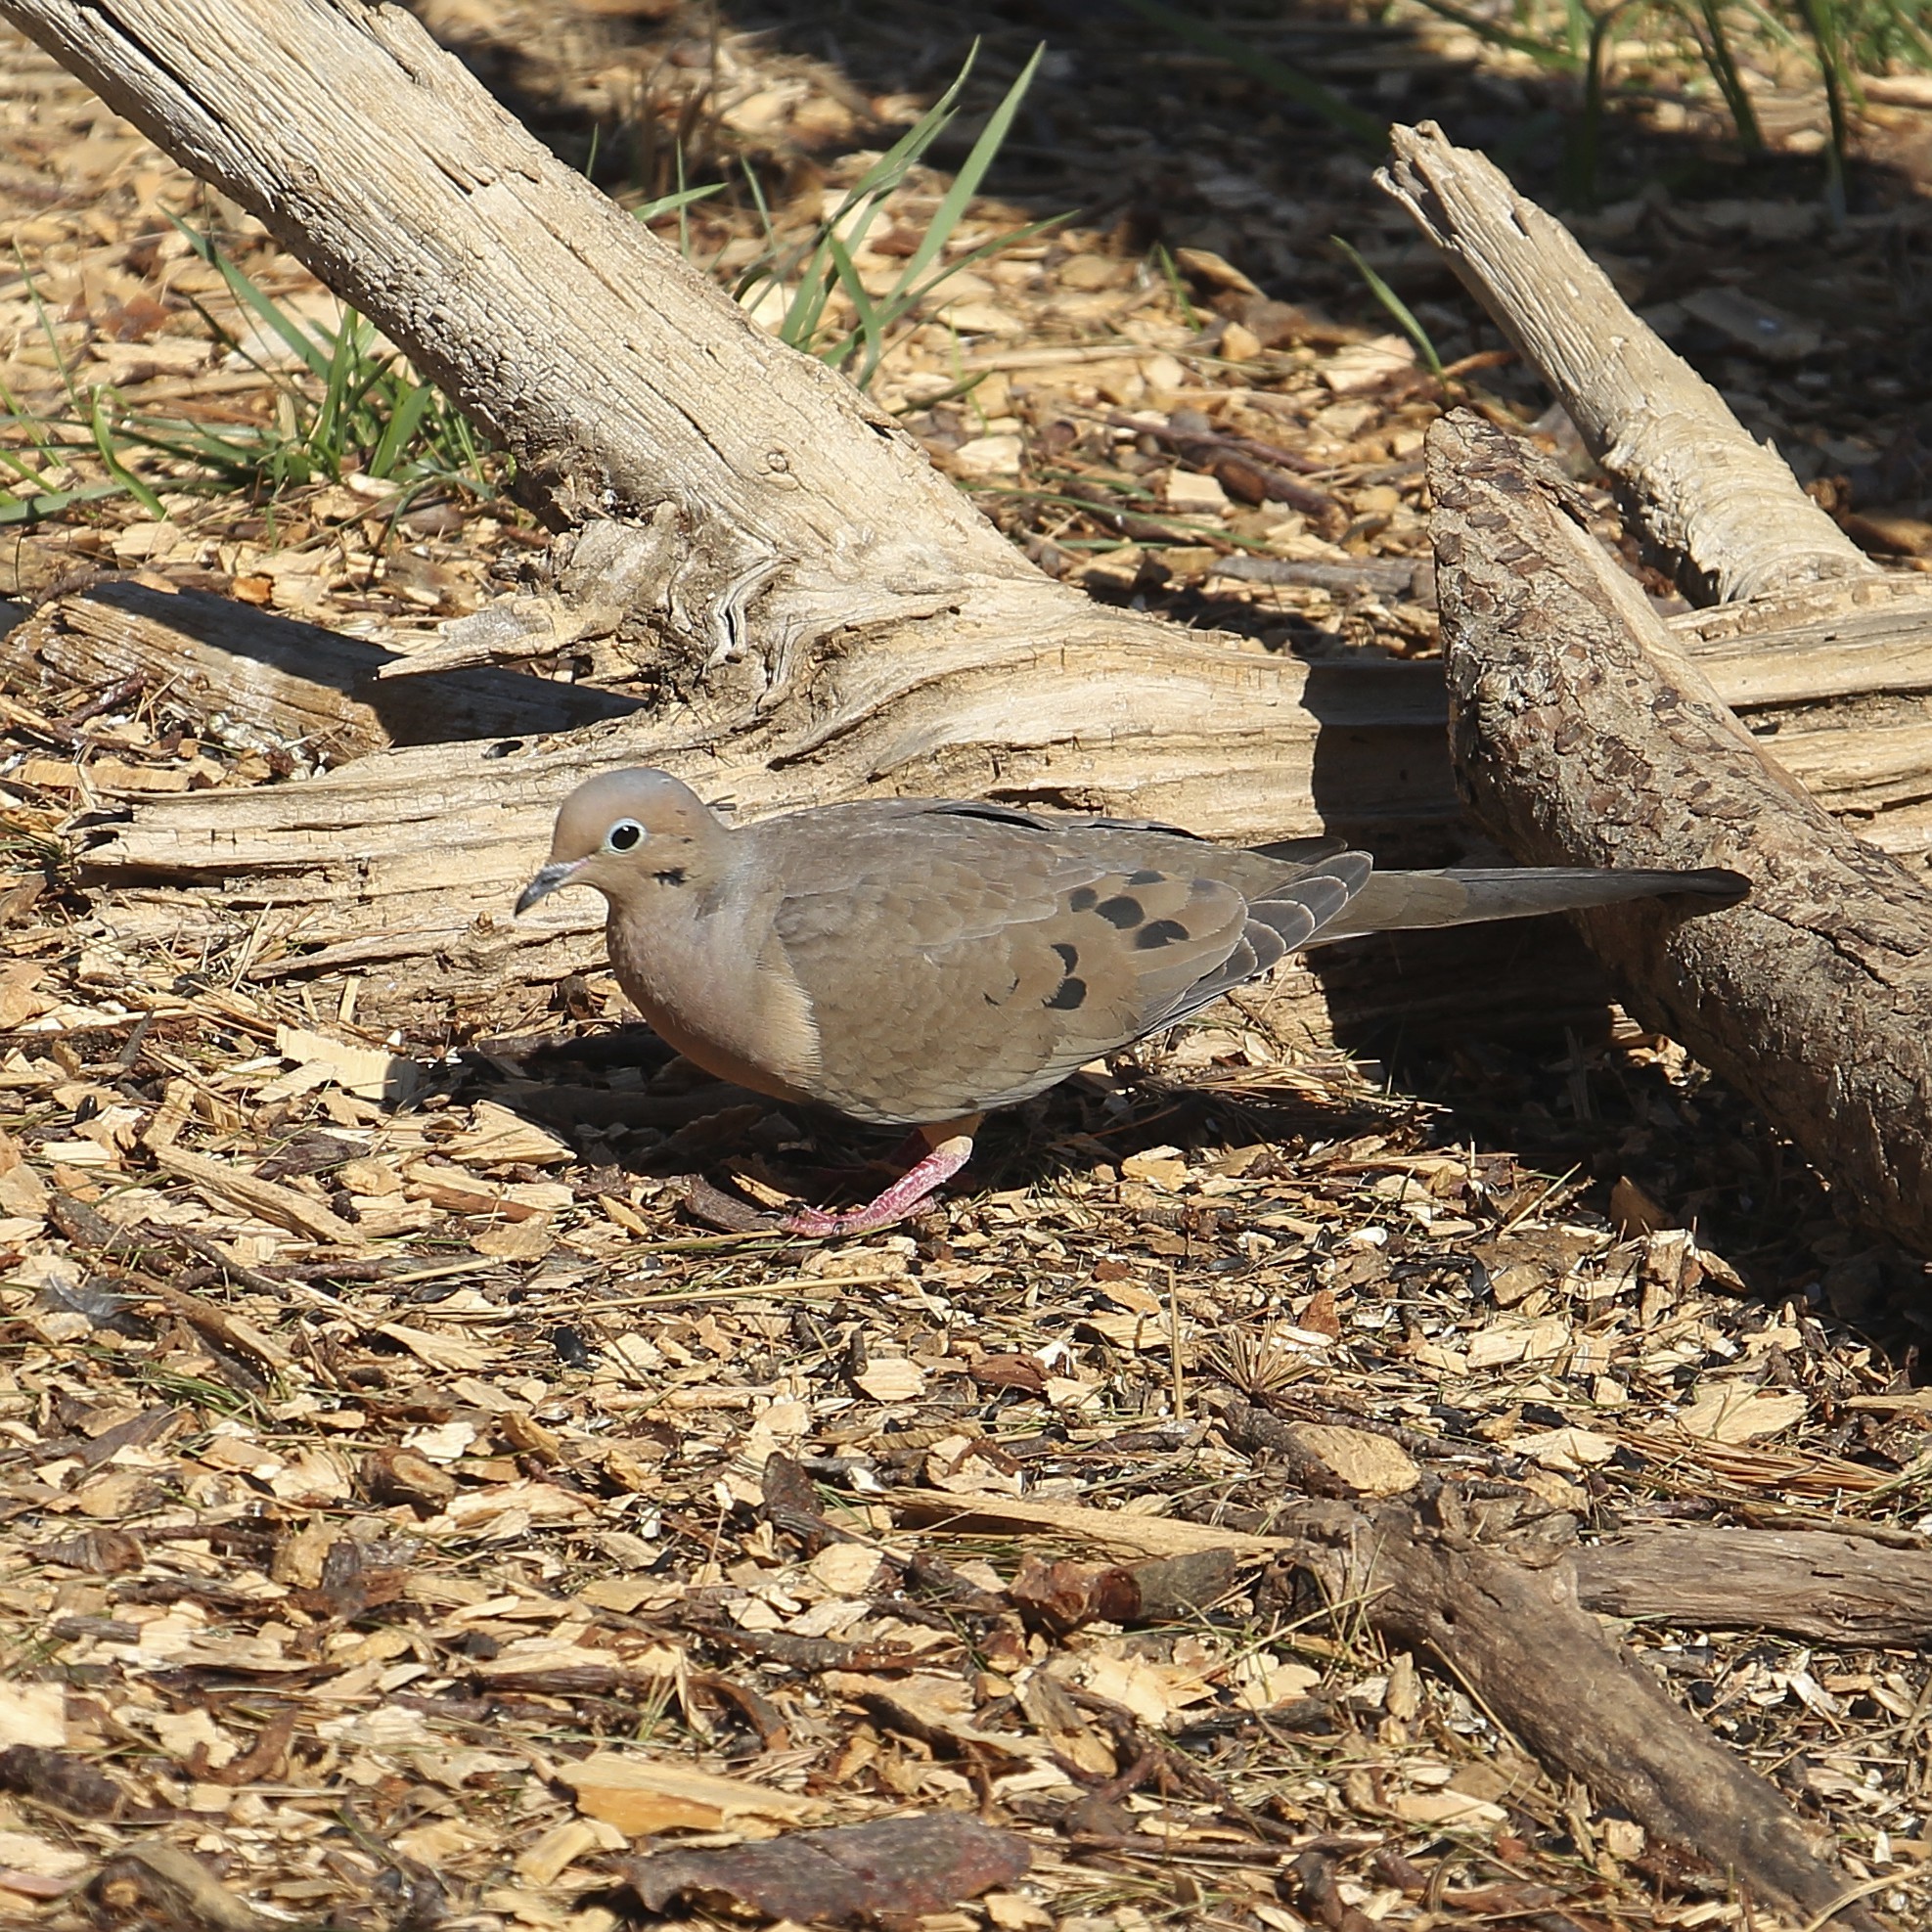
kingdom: Animalia
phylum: Chordata
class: Aves
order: Columbiformes
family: Columbidae
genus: Zenaida
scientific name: Zenaida macroura
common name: Mourning dove
